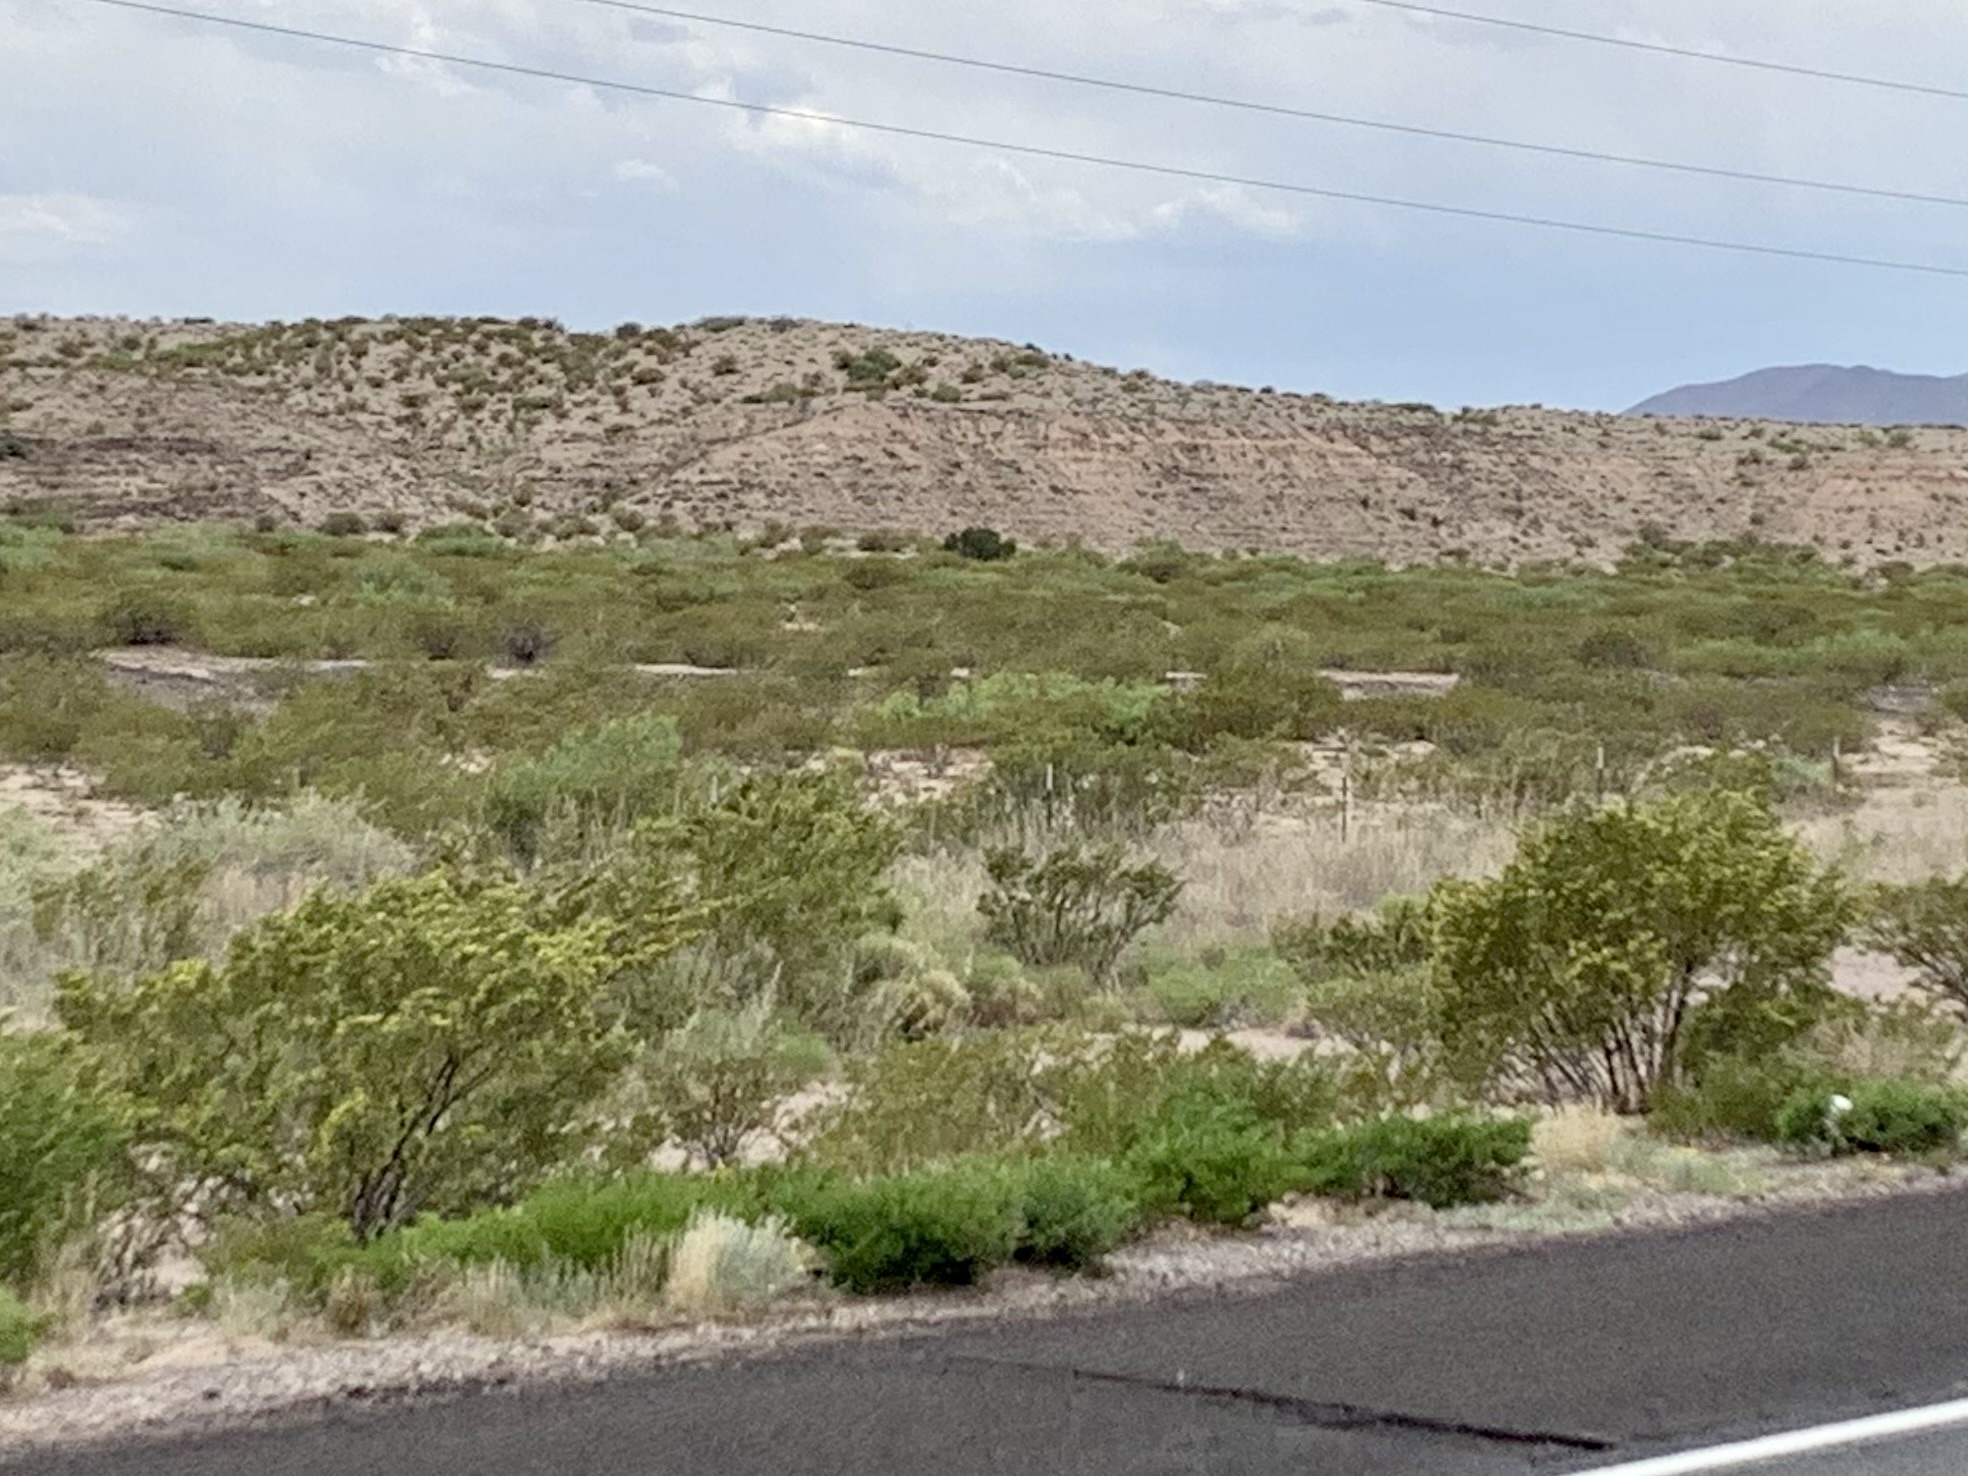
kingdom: Plantae
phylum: Tracheophyta
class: Magnoliopsida
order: Zygophyllales
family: Zygophyllaceae
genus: Larrea
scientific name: Larrea tridentata
